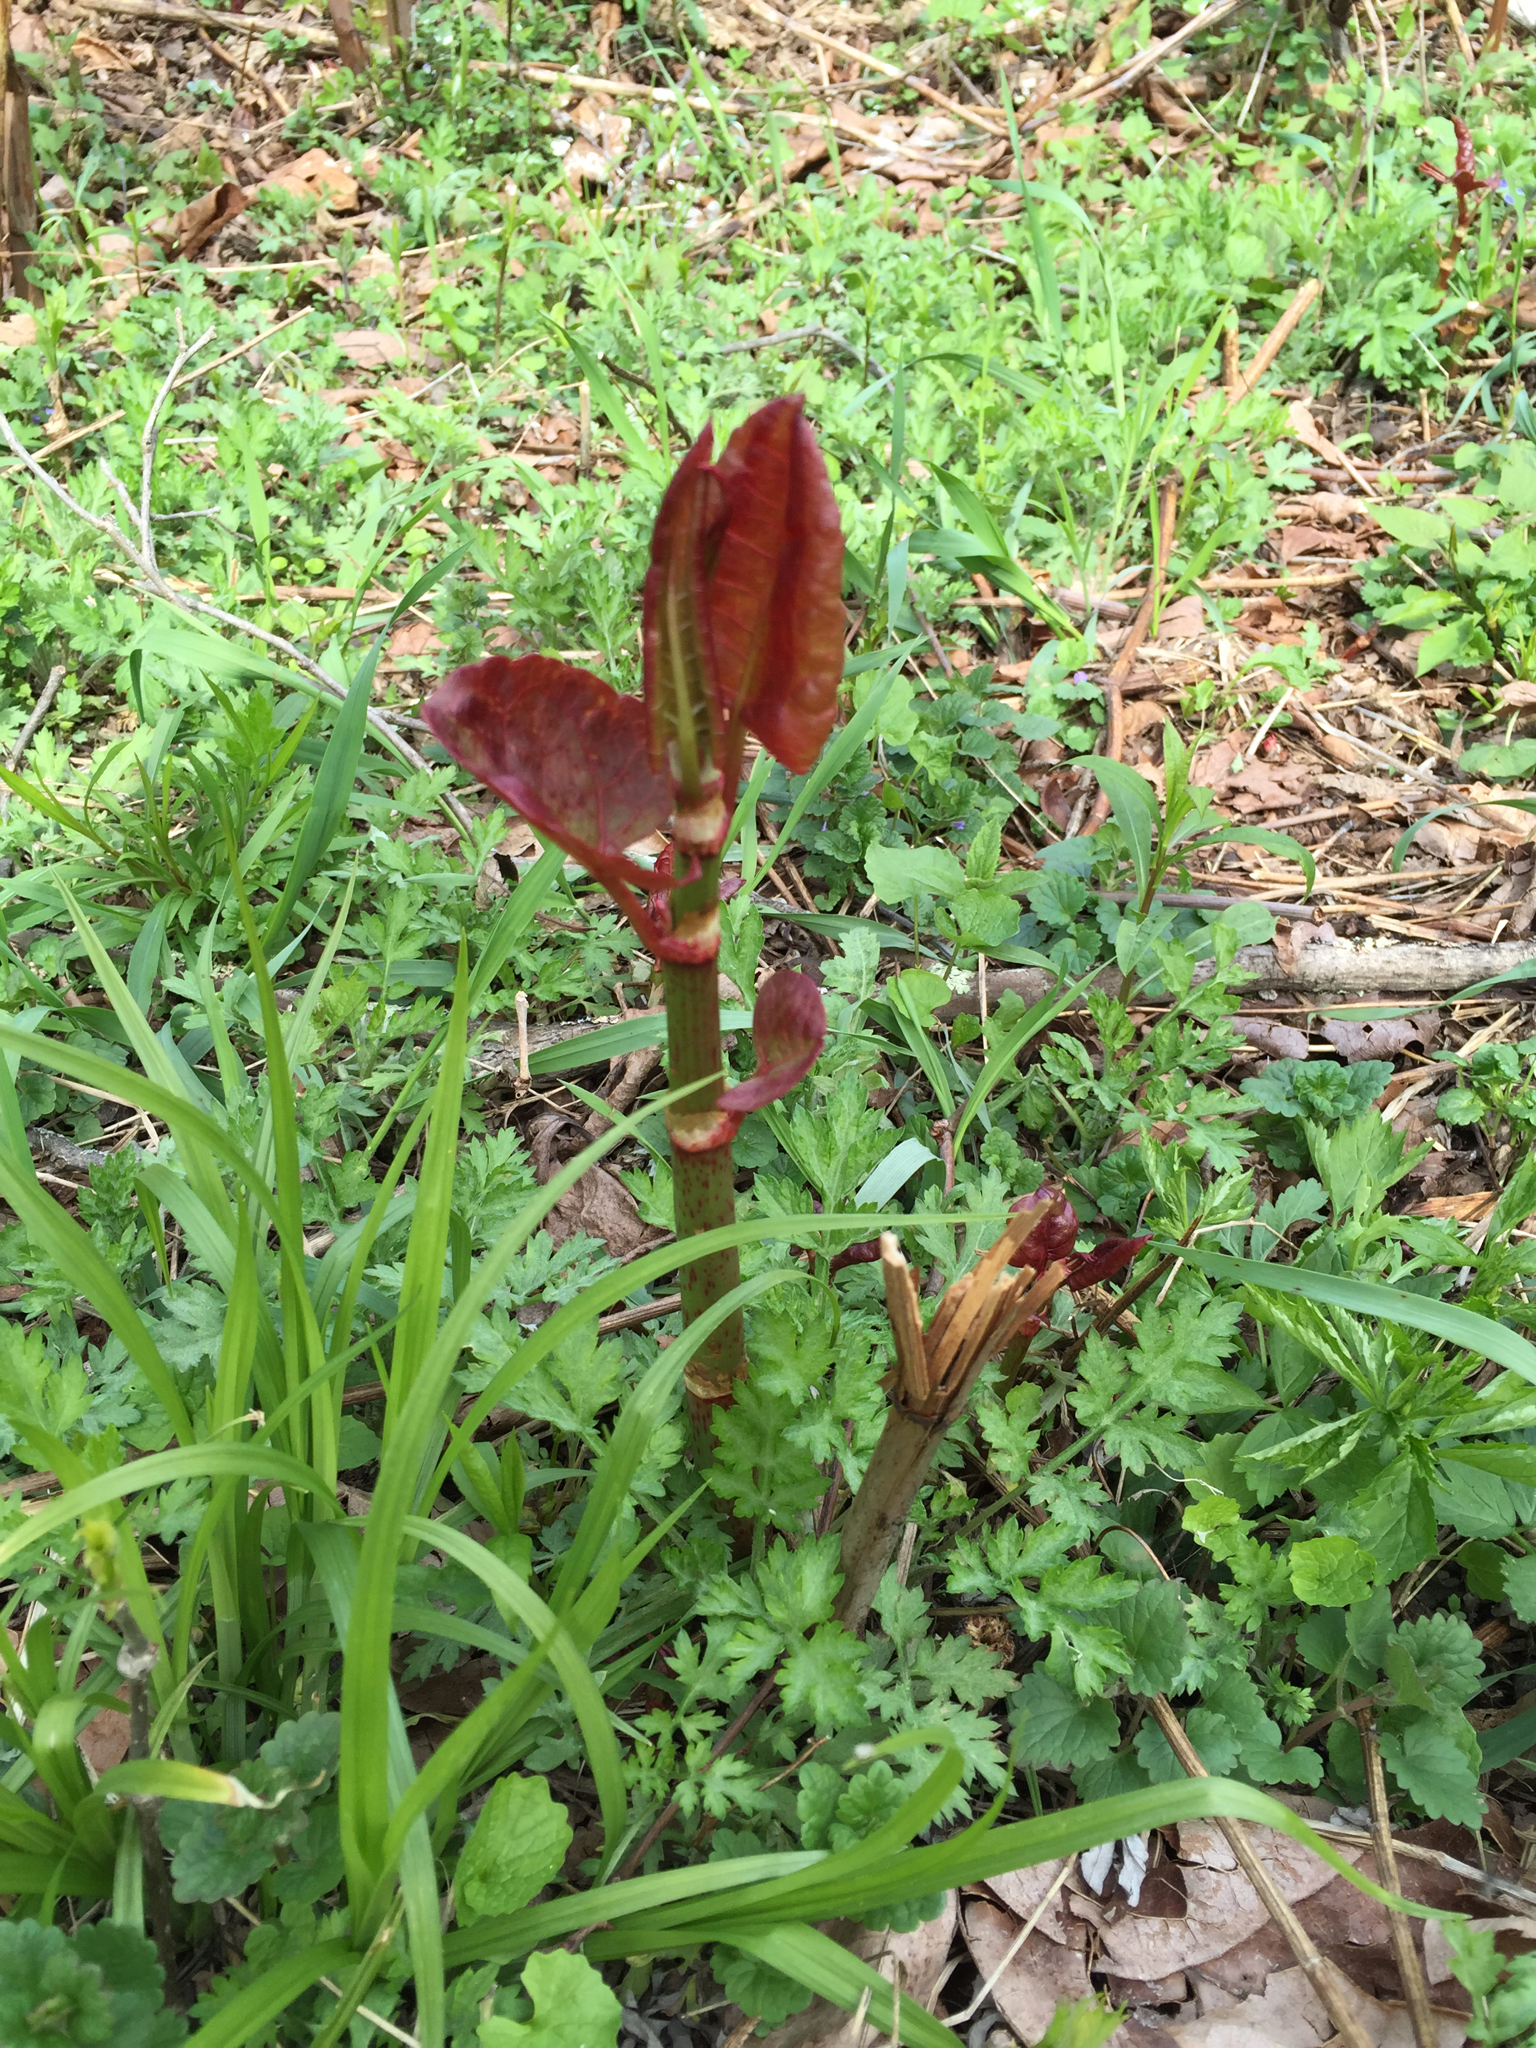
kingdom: Plantae
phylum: Tracheophyta
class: Magnoliopsida
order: Caryophyllales
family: Polygonaceae
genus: Reynoutria
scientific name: Reynoutria japonica
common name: Japanese knotweed
